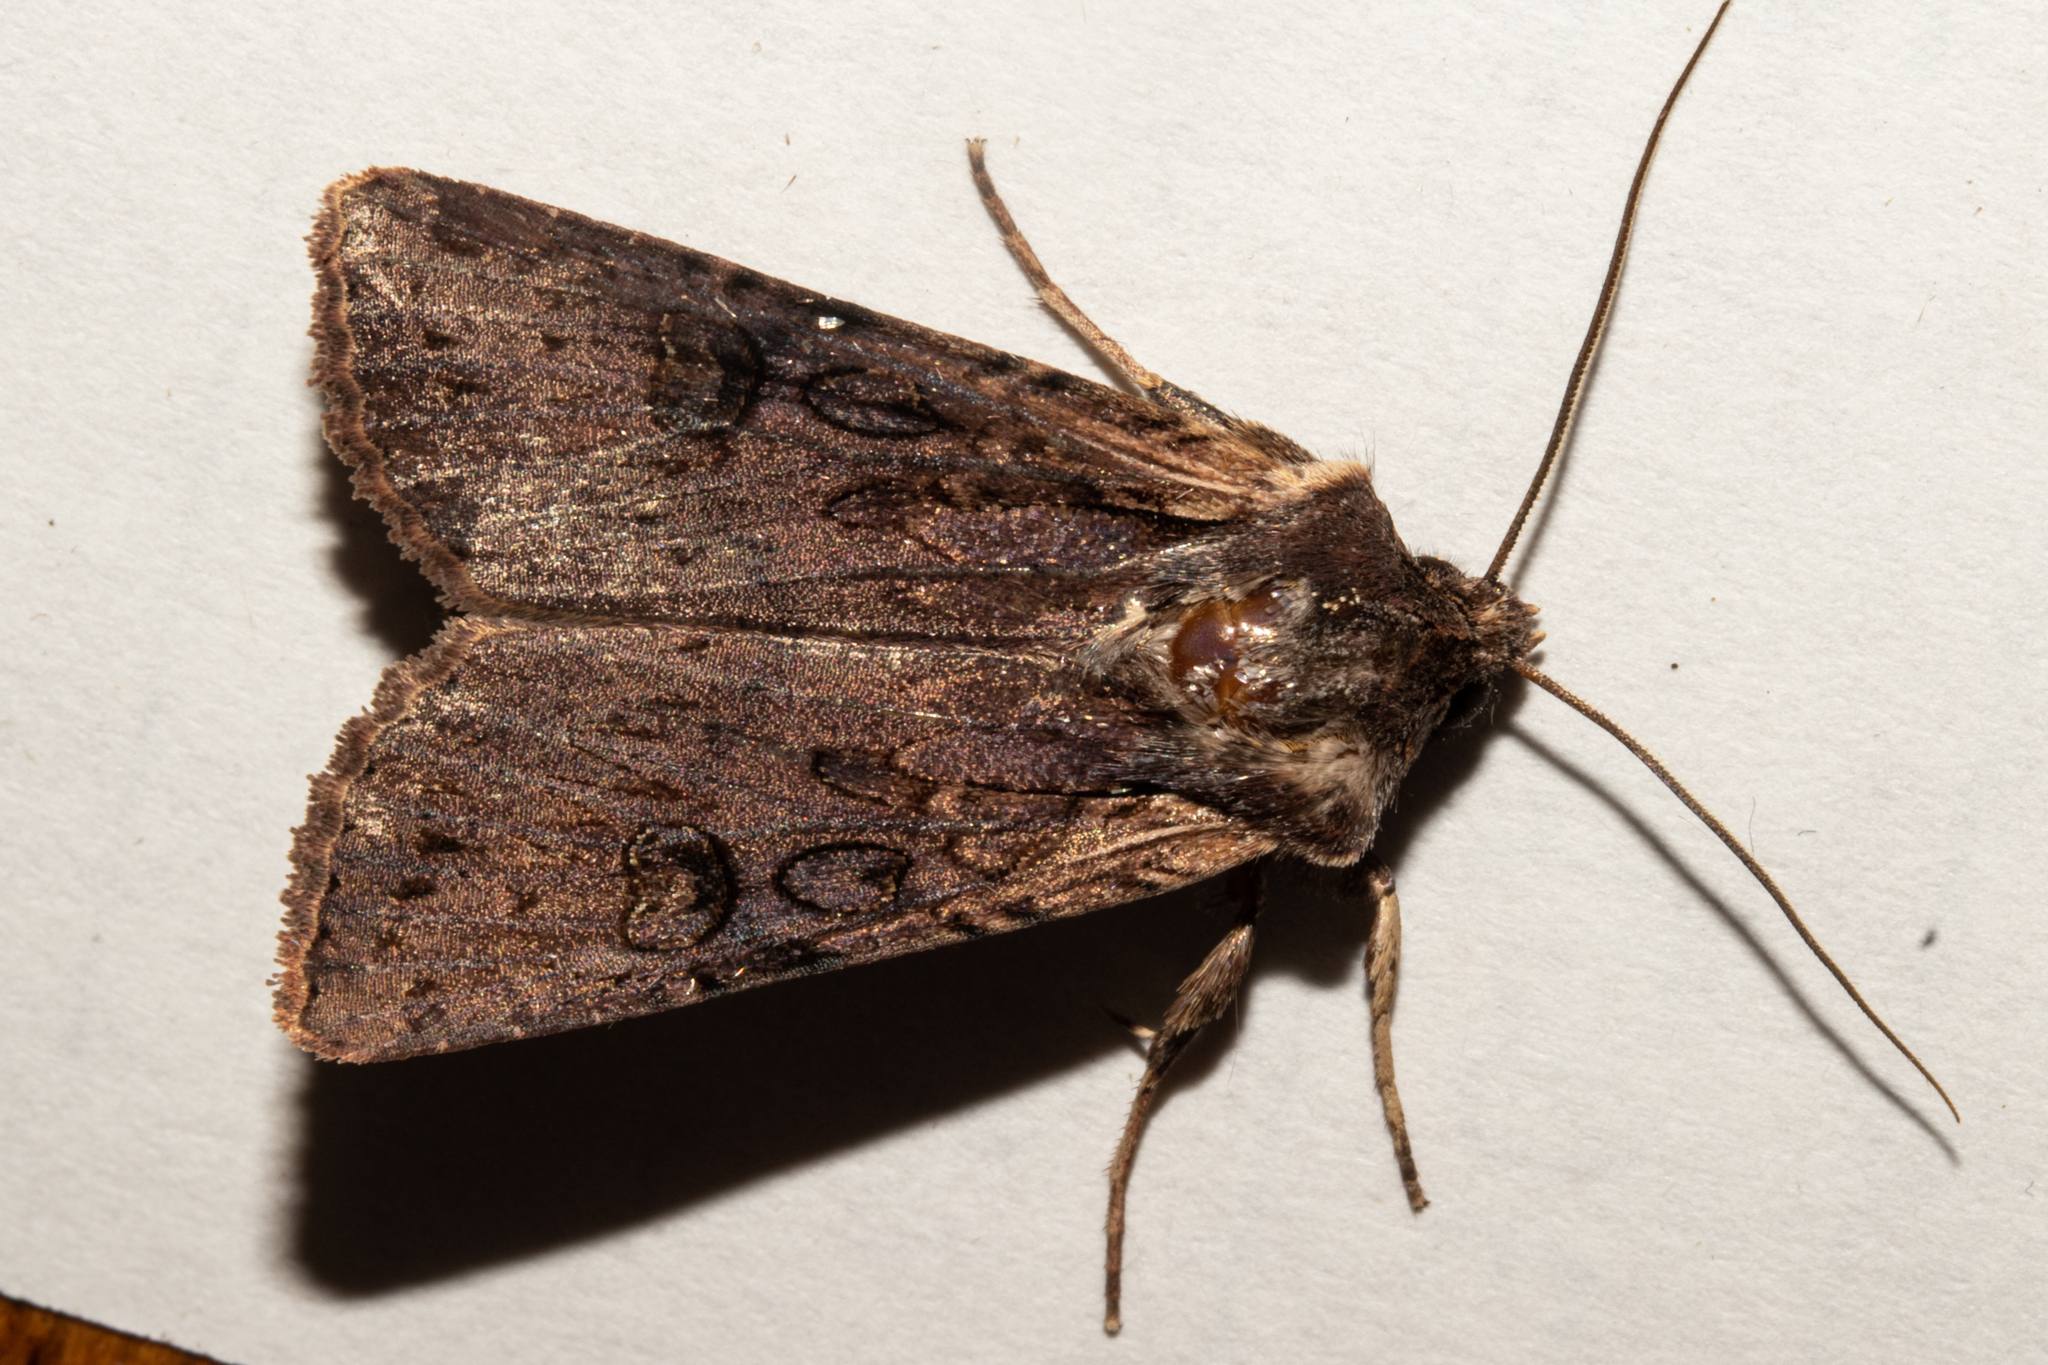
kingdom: Animalia
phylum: Arthropoda
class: Insecta
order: Lepidoptera
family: Noctuidae
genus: Ichneutica
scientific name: Ichneutica omoplaca
